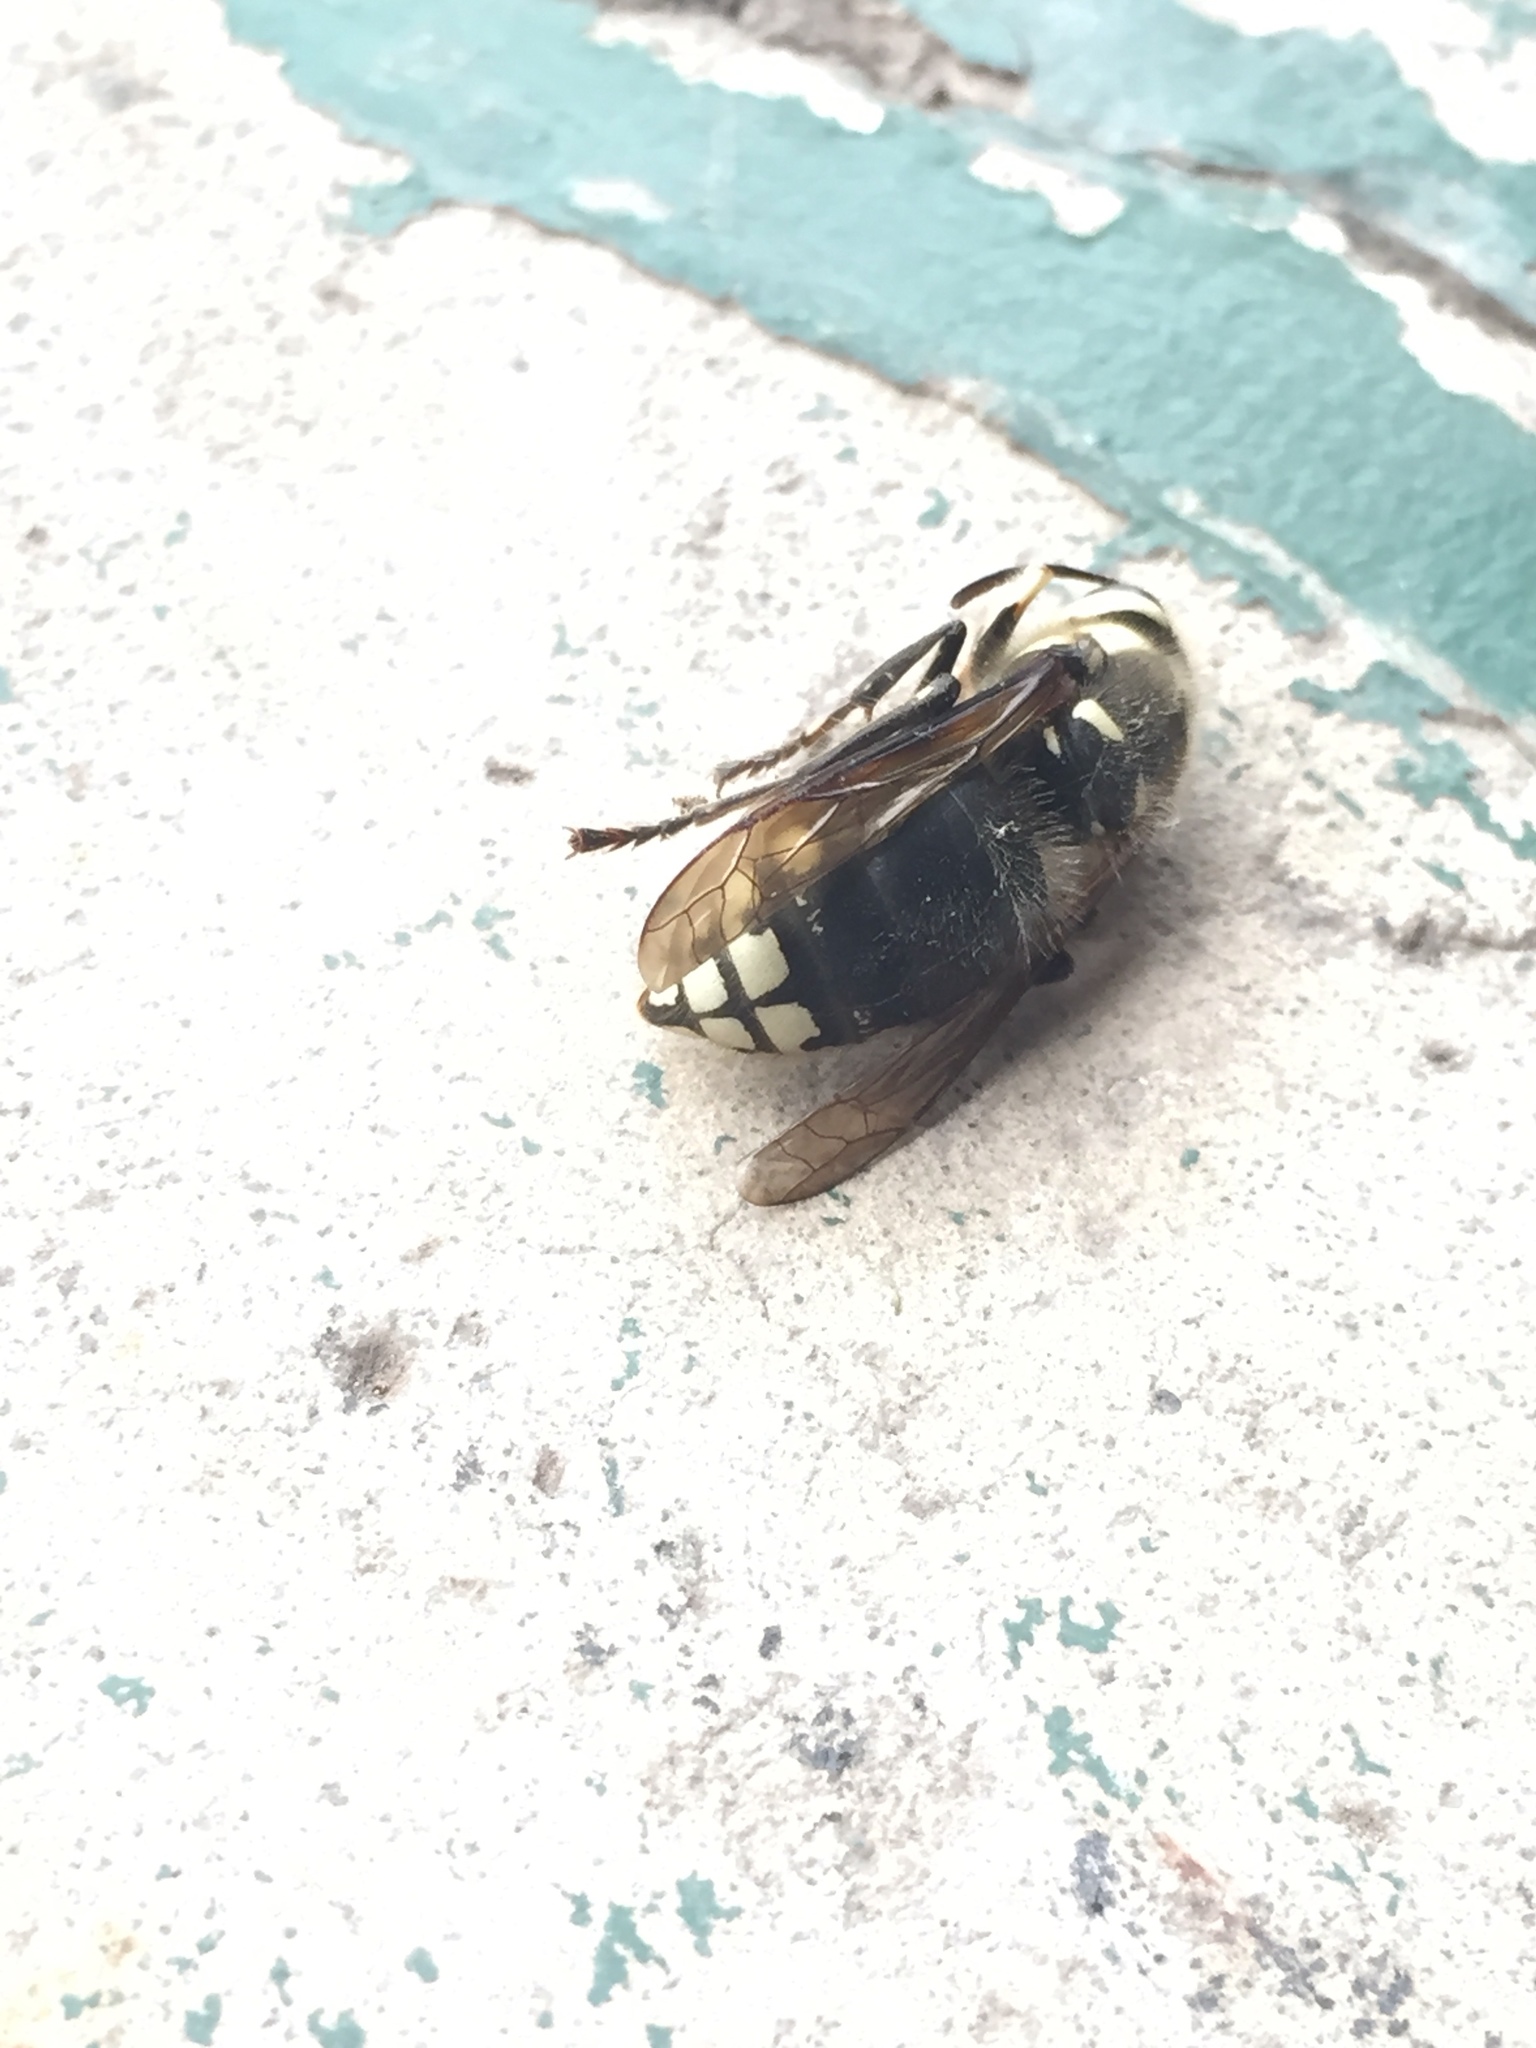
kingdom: Animalia
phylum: Arthropoda
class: Insecta
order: Hymenoptera
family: Vespidae
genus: Dolichovespula
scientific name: Dolichovespula maculata
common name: Bald-faced hornet
